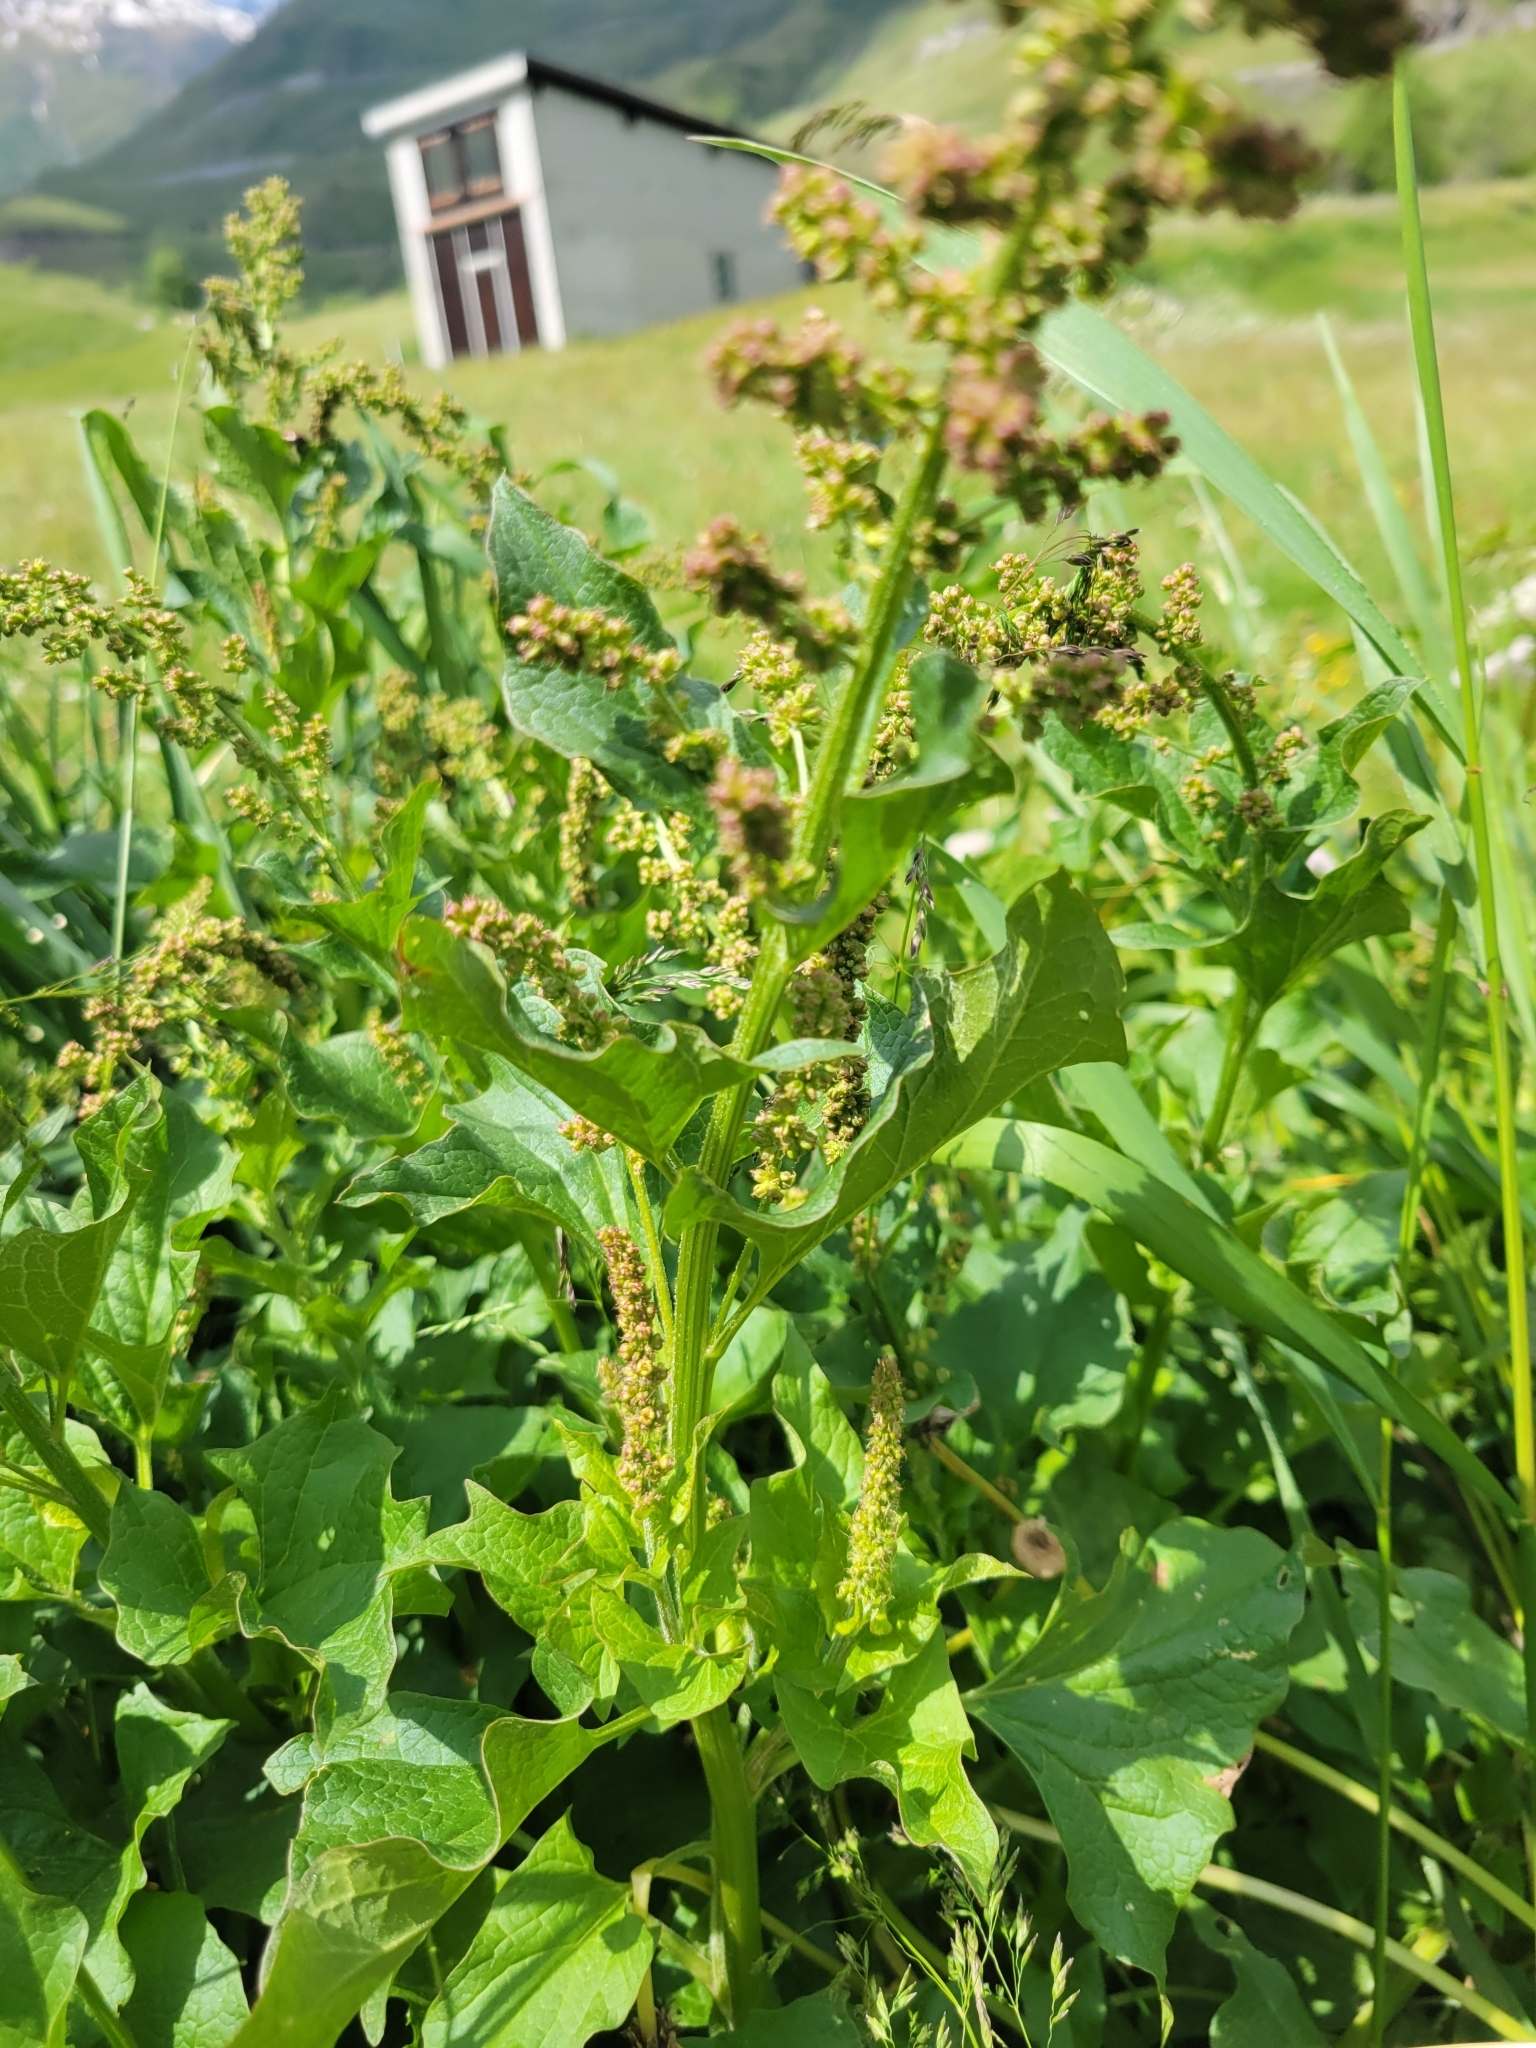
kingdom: Plantae
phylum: Tracheophyta
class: Magnoliopsida
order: Caryophyllales
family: Amaranthaceae
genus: Blitum
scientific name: Blitum bonus-henricus
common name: Good king henry
